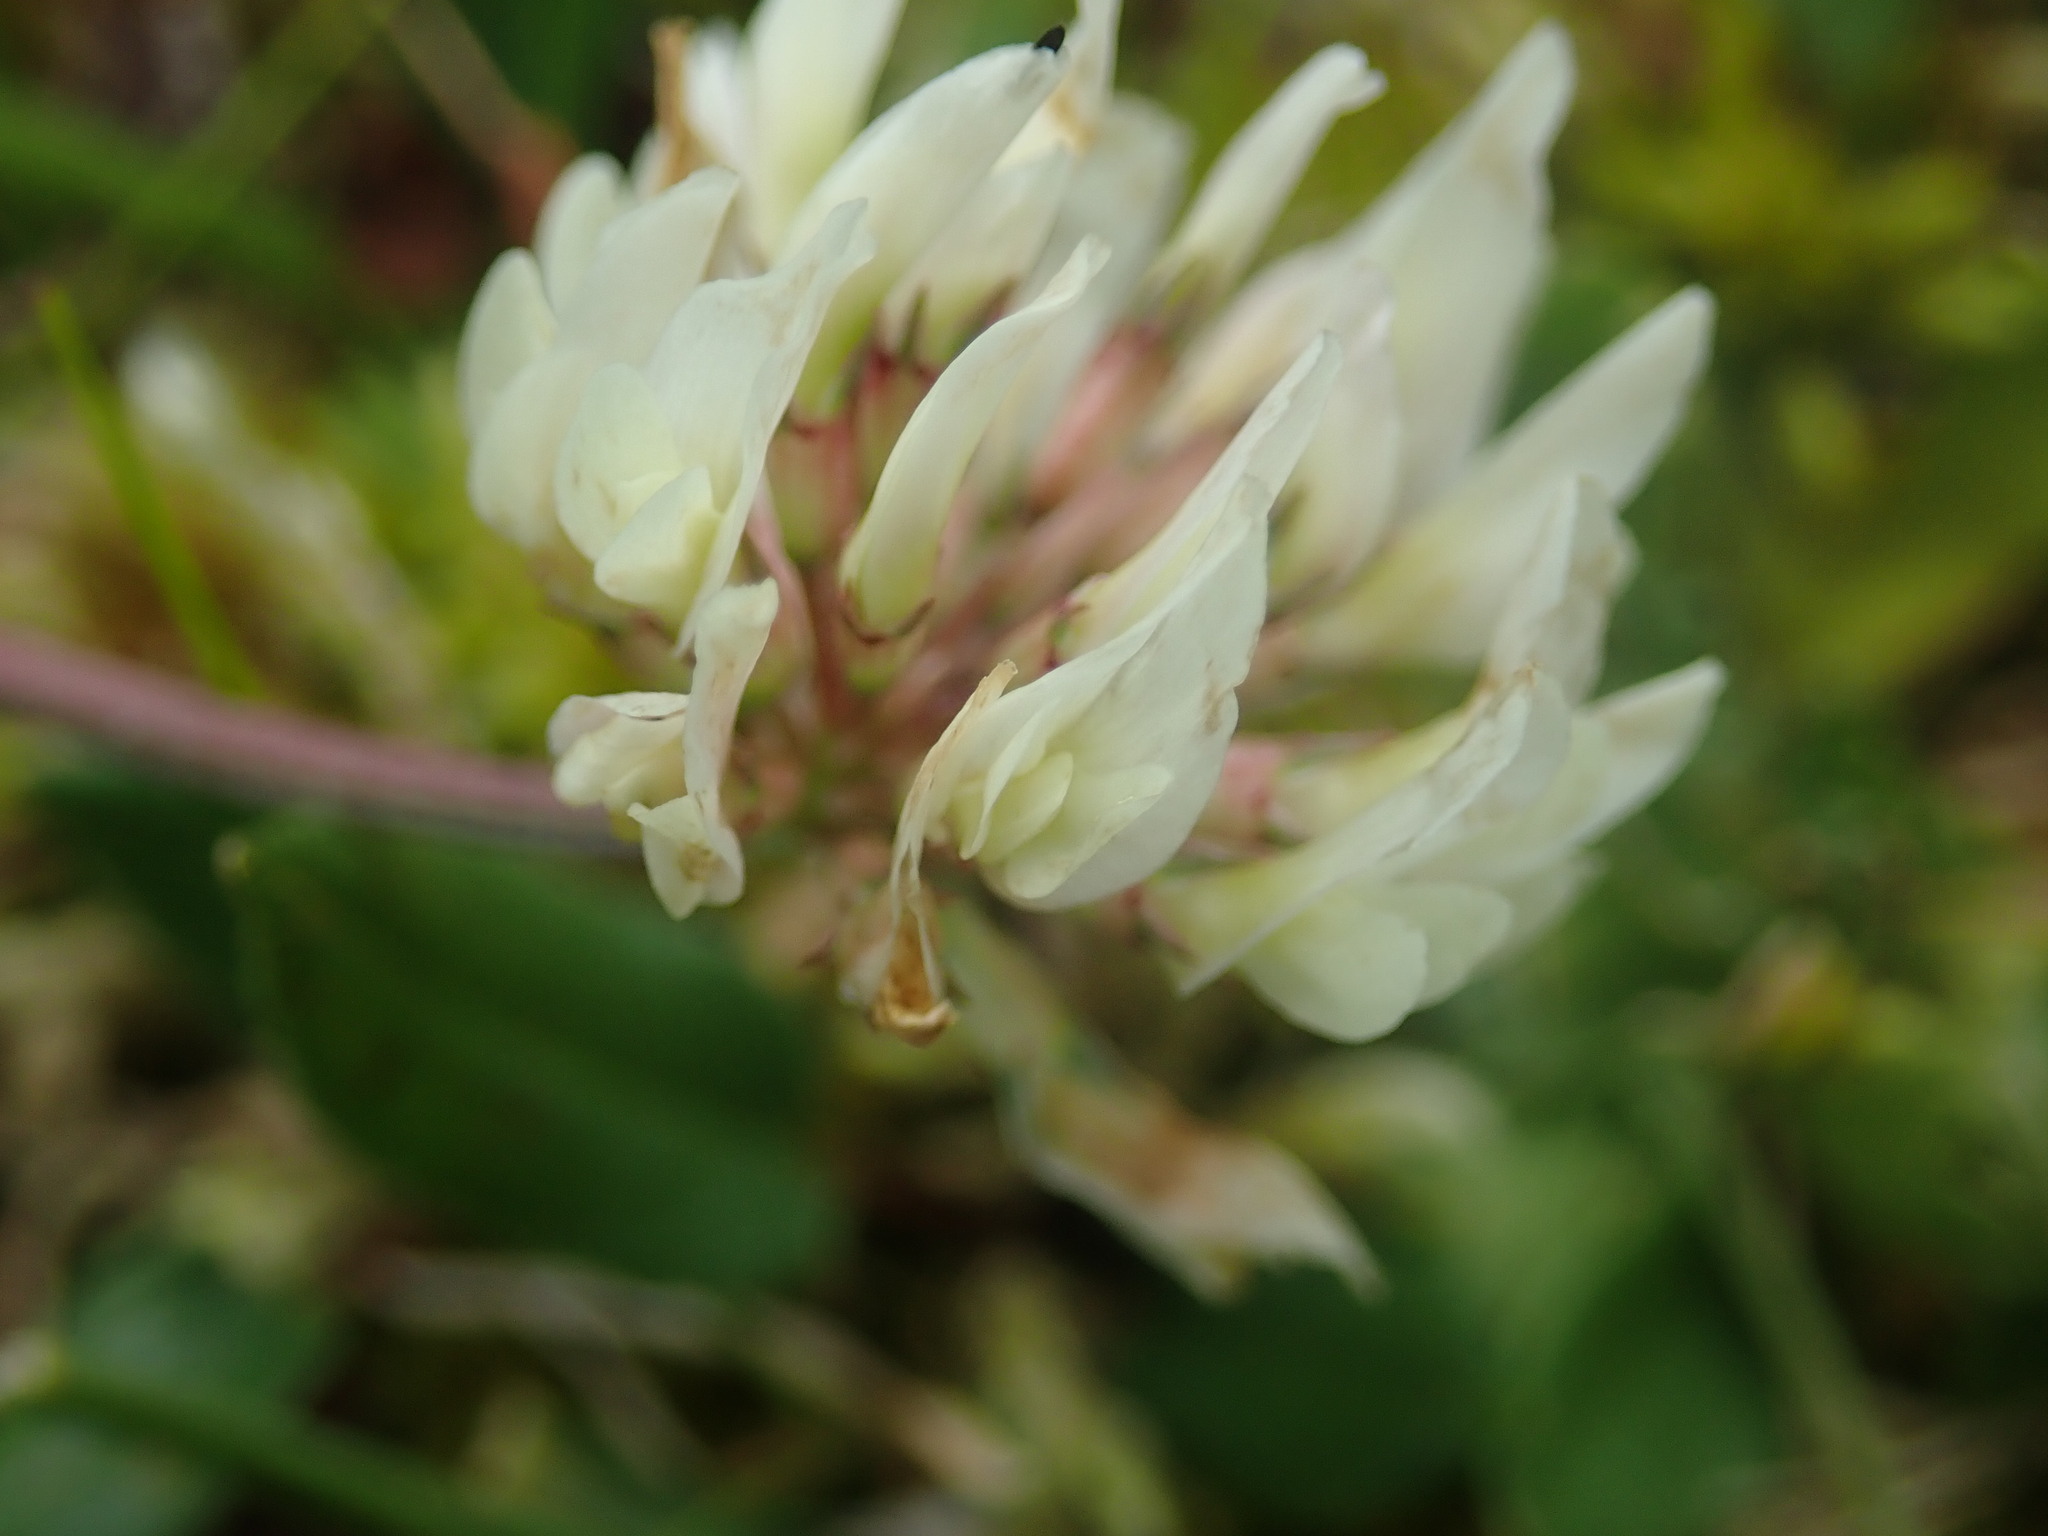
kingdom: Plantae
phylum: Tracheophyta
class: Magnoliopsida
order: Fabales
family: Fabaceae
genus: Trifolium
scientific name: Trifolium pallescens
